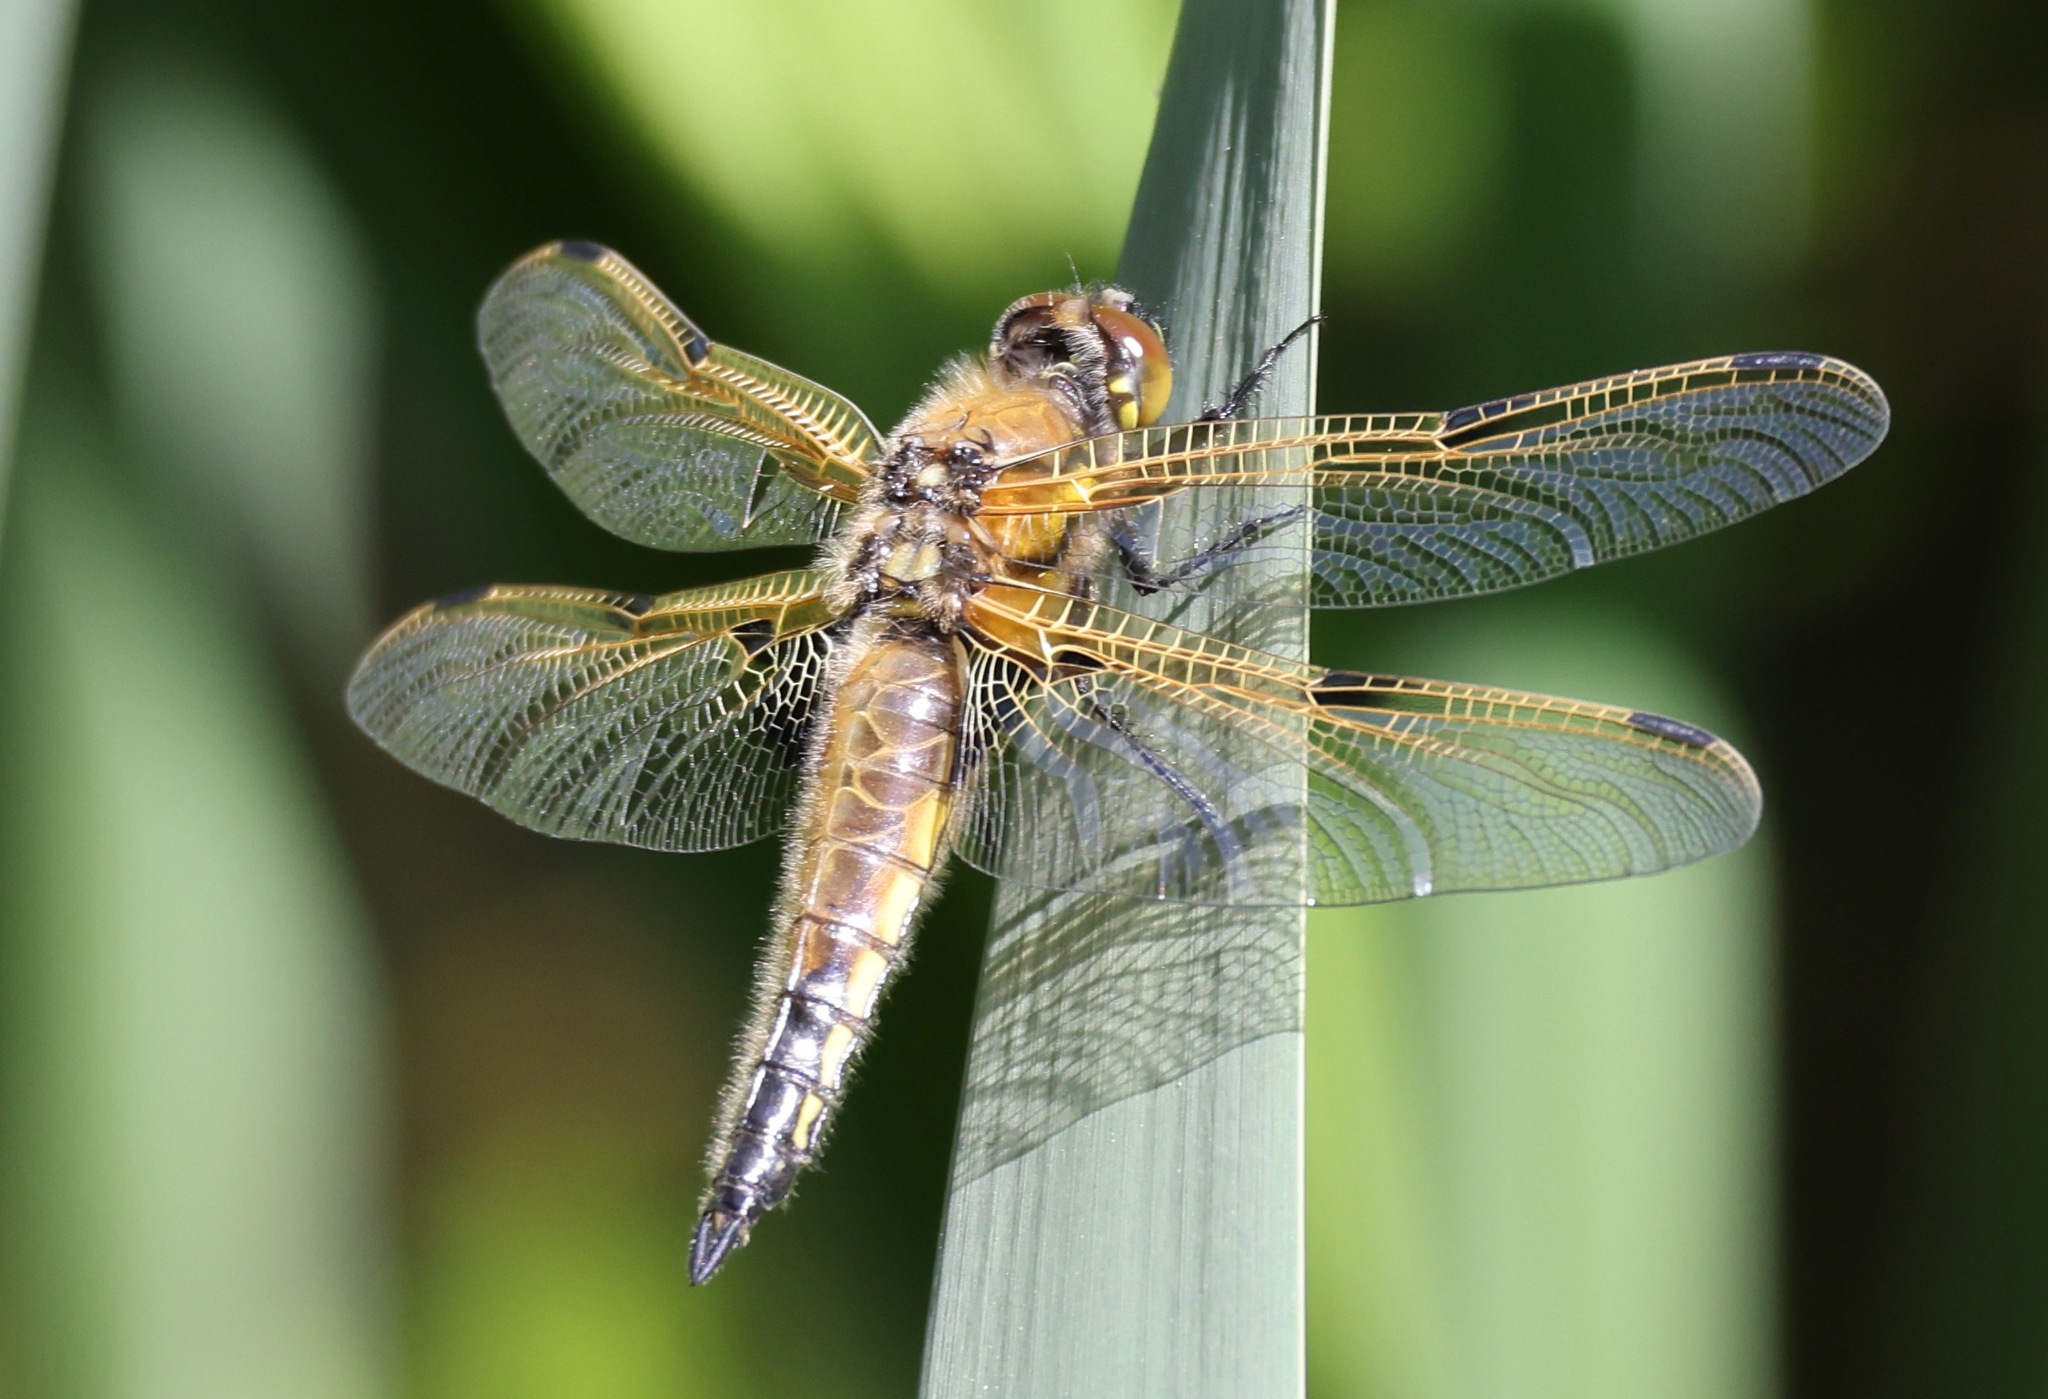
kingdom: Animalia
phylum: Arthropoda
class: Insecta
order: Odonata
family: Libellulidae
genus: Libellula
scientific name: Libellula quadrimaculata
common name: Four-spotted chaser
